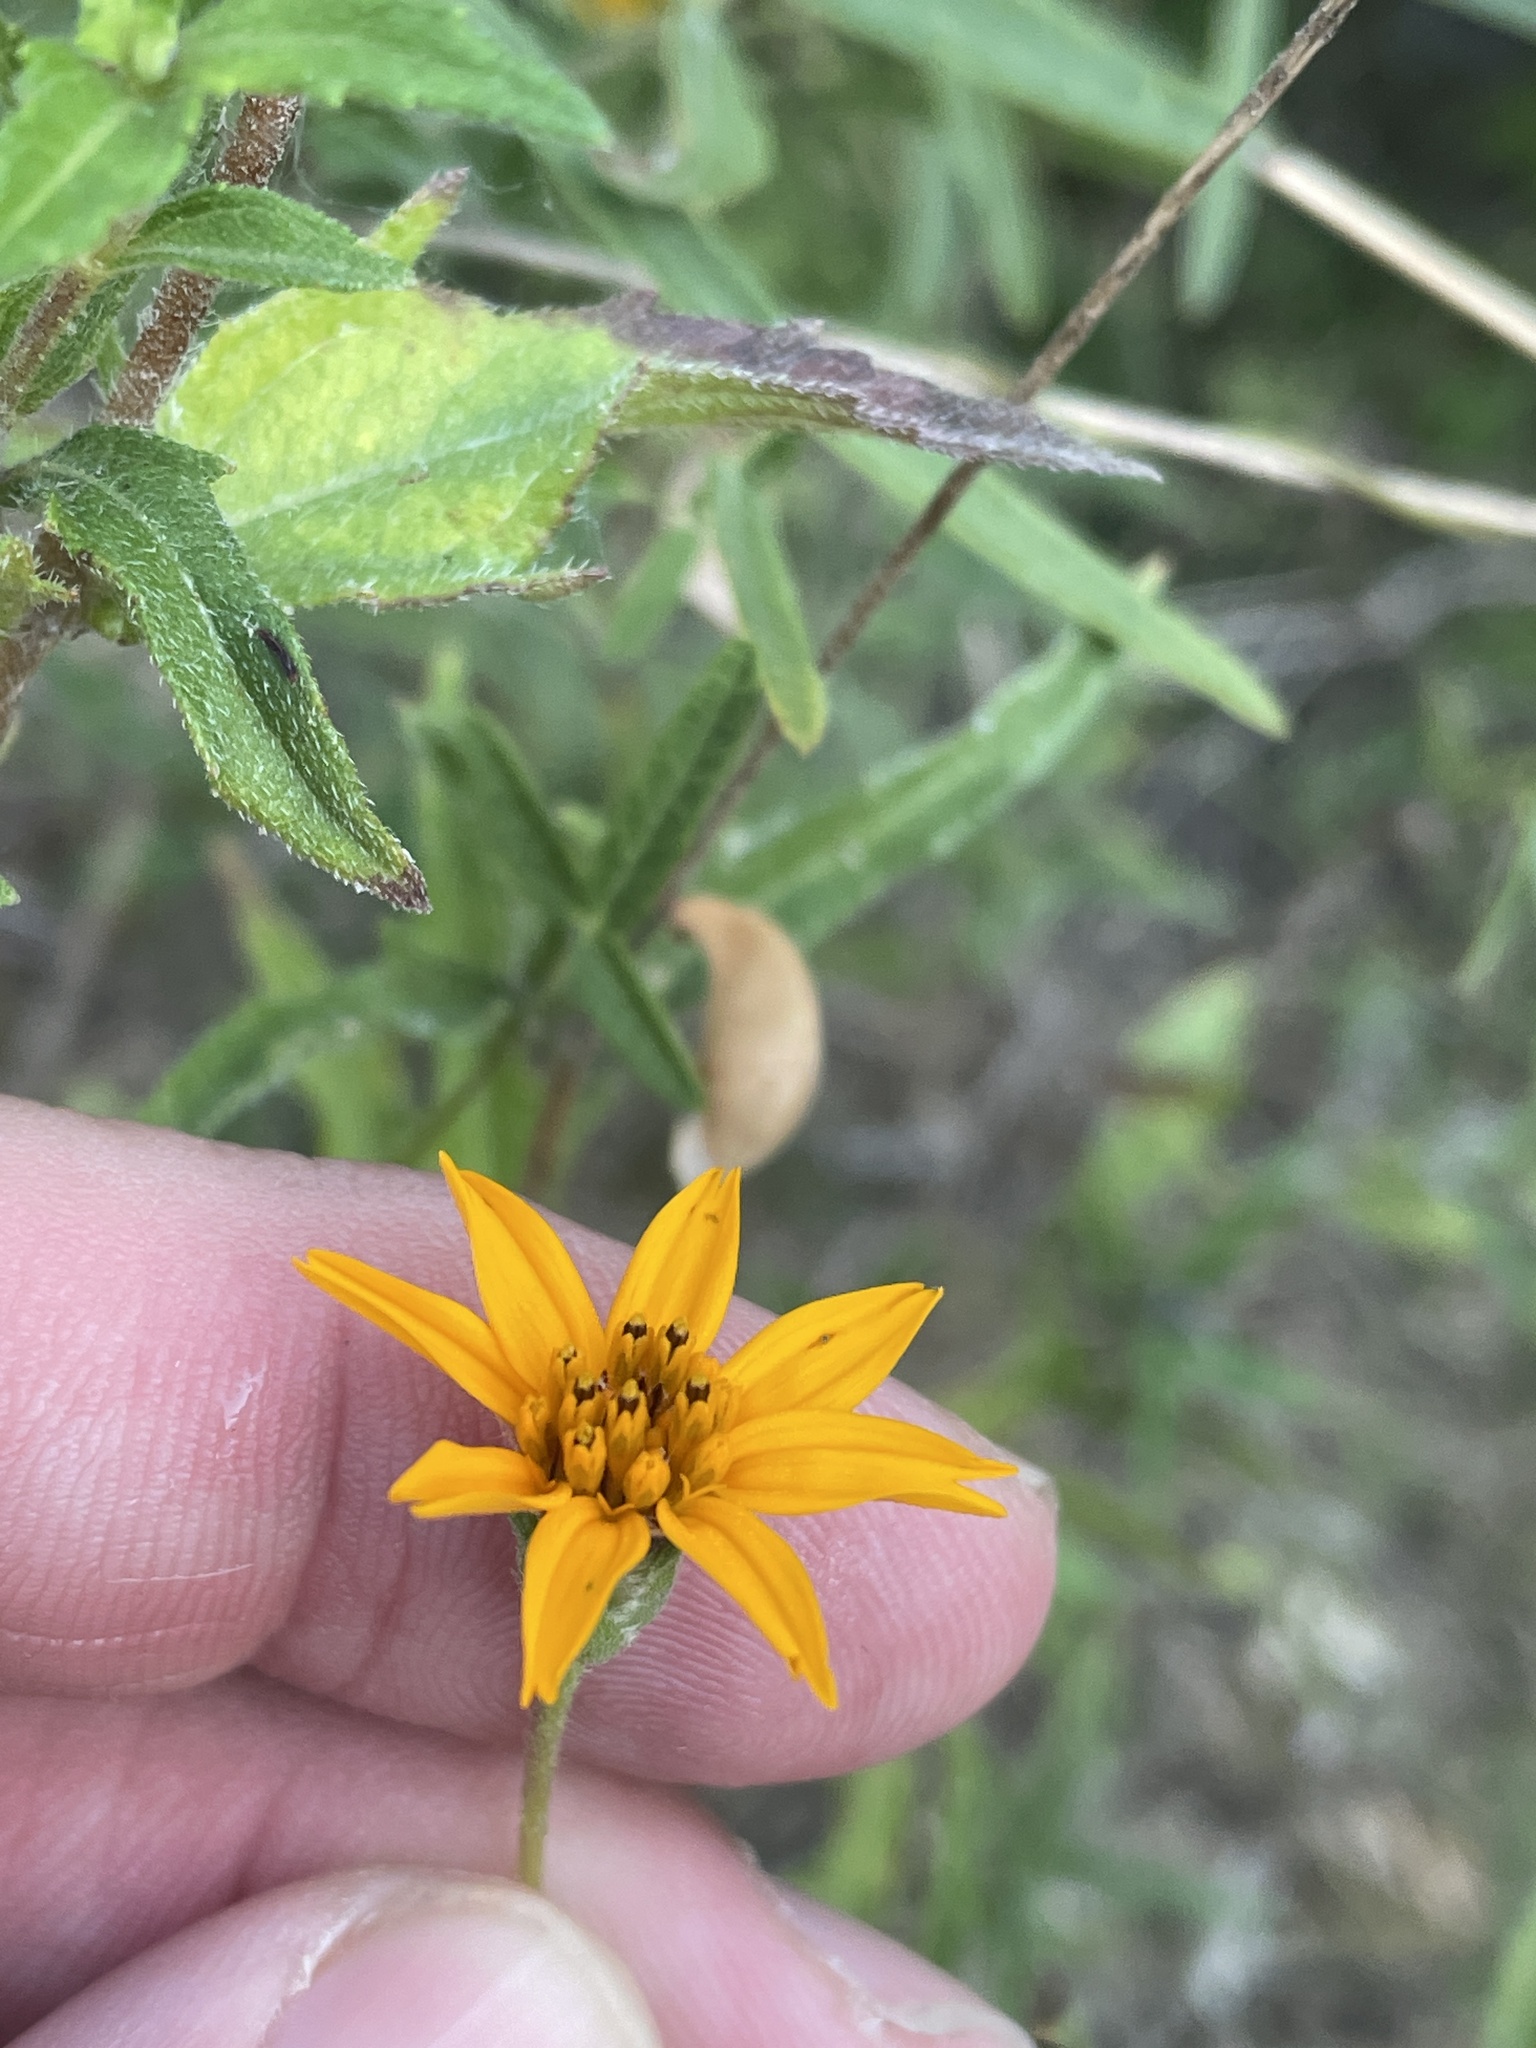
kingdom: Plantae
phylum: Tracheophyta
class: Magnoliopsida
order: Asterales
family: Asteraceae
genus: Wedelia
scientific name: Wedelia acapulcensis
